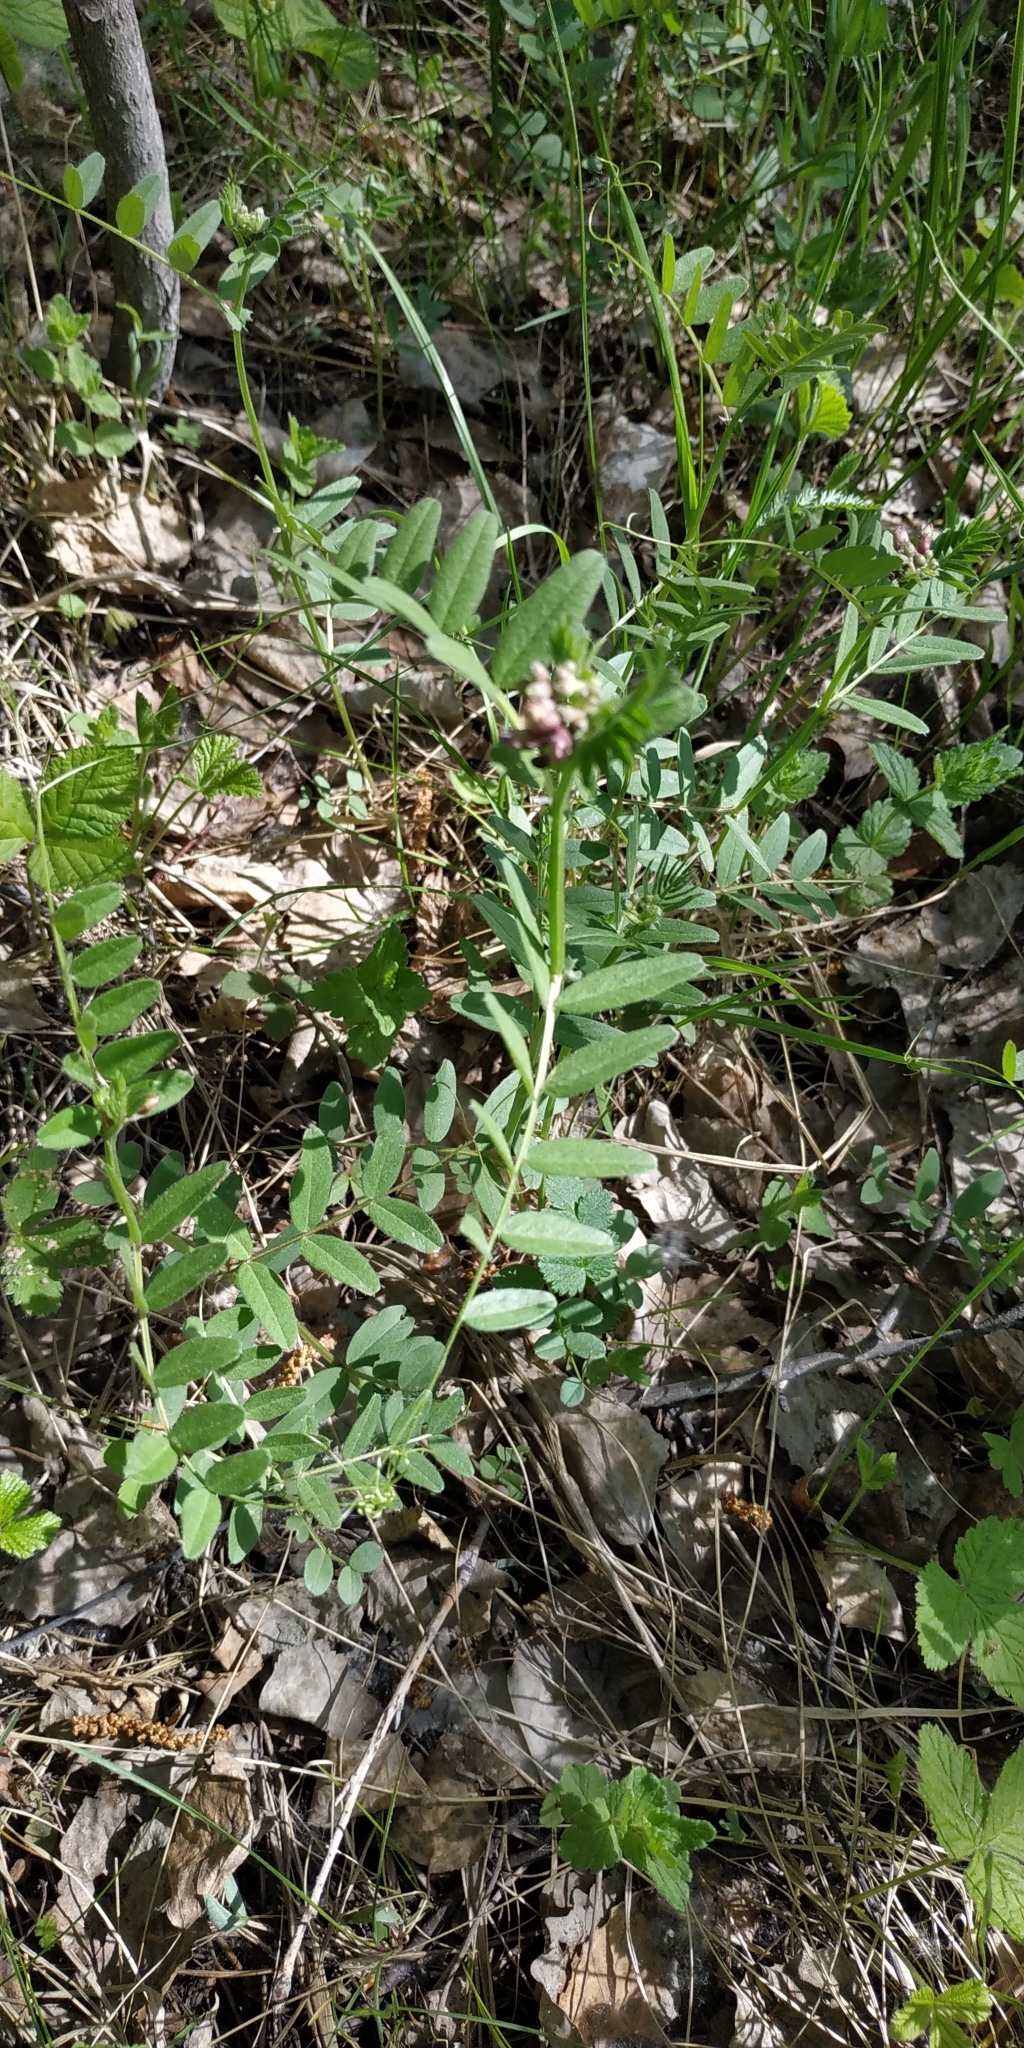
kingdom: Plantae
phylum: Tracheophyta
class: Magnoliopsida
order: Fabales
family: Fabaceae
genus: Vicia
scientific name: Vicia sepium
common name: Bush vetch
